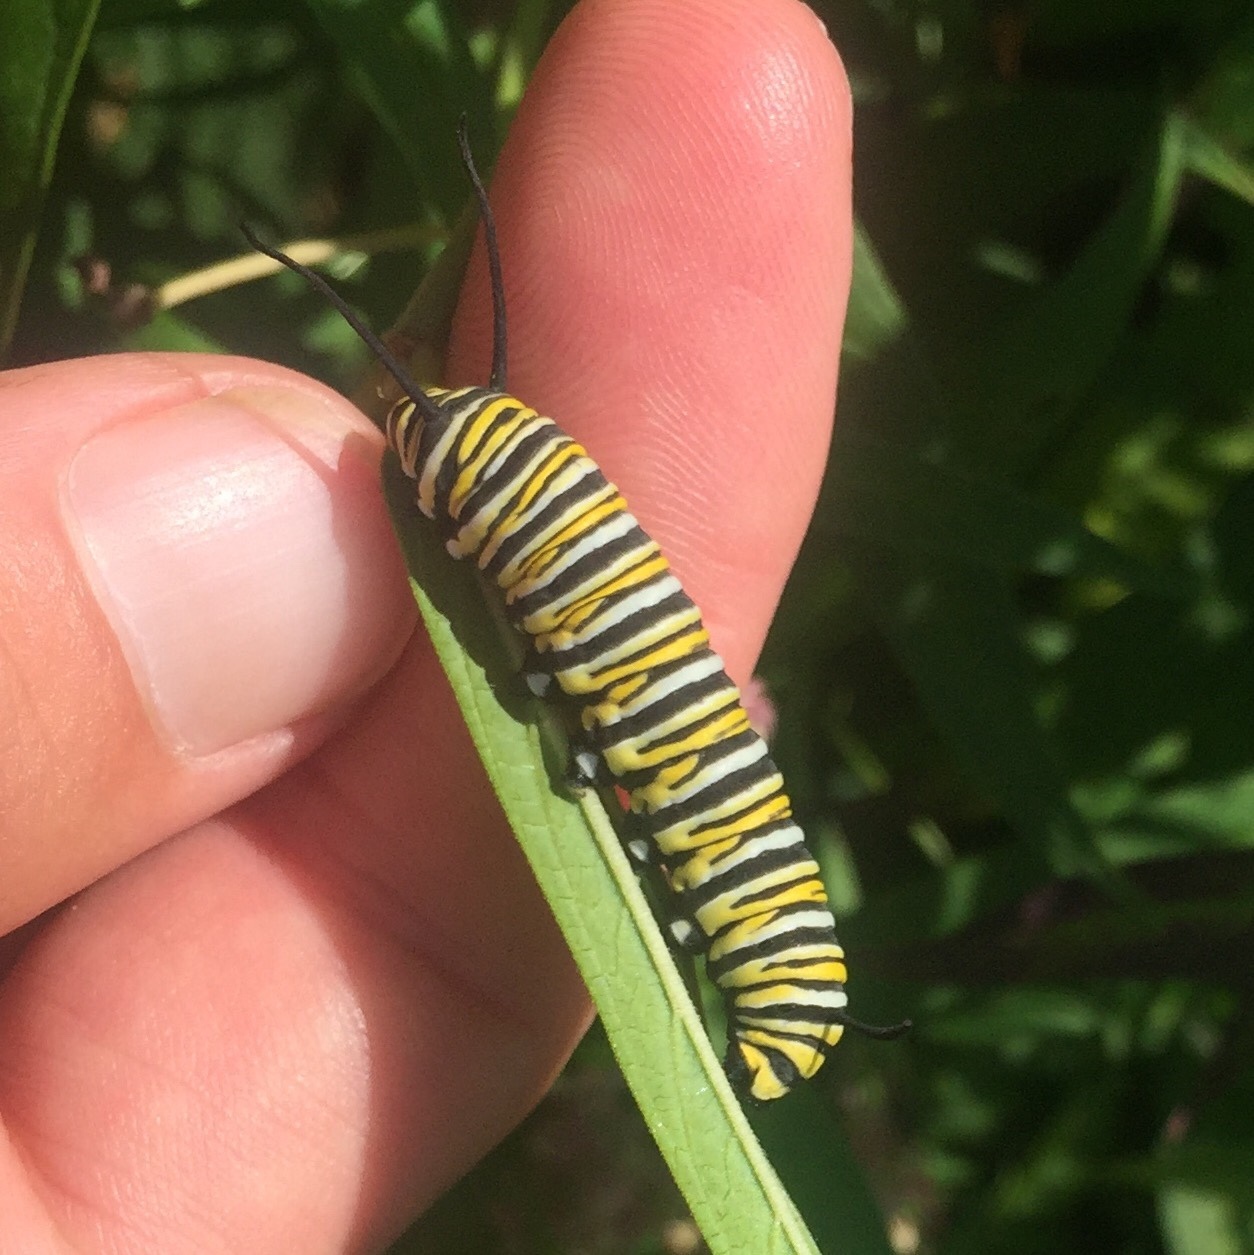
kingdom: Animalia
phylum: Arthropoda
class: Insecta
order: Lepidoptera
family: Nymphalidae
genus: Danaus
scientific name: Danaus plexippus
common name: Monarch
